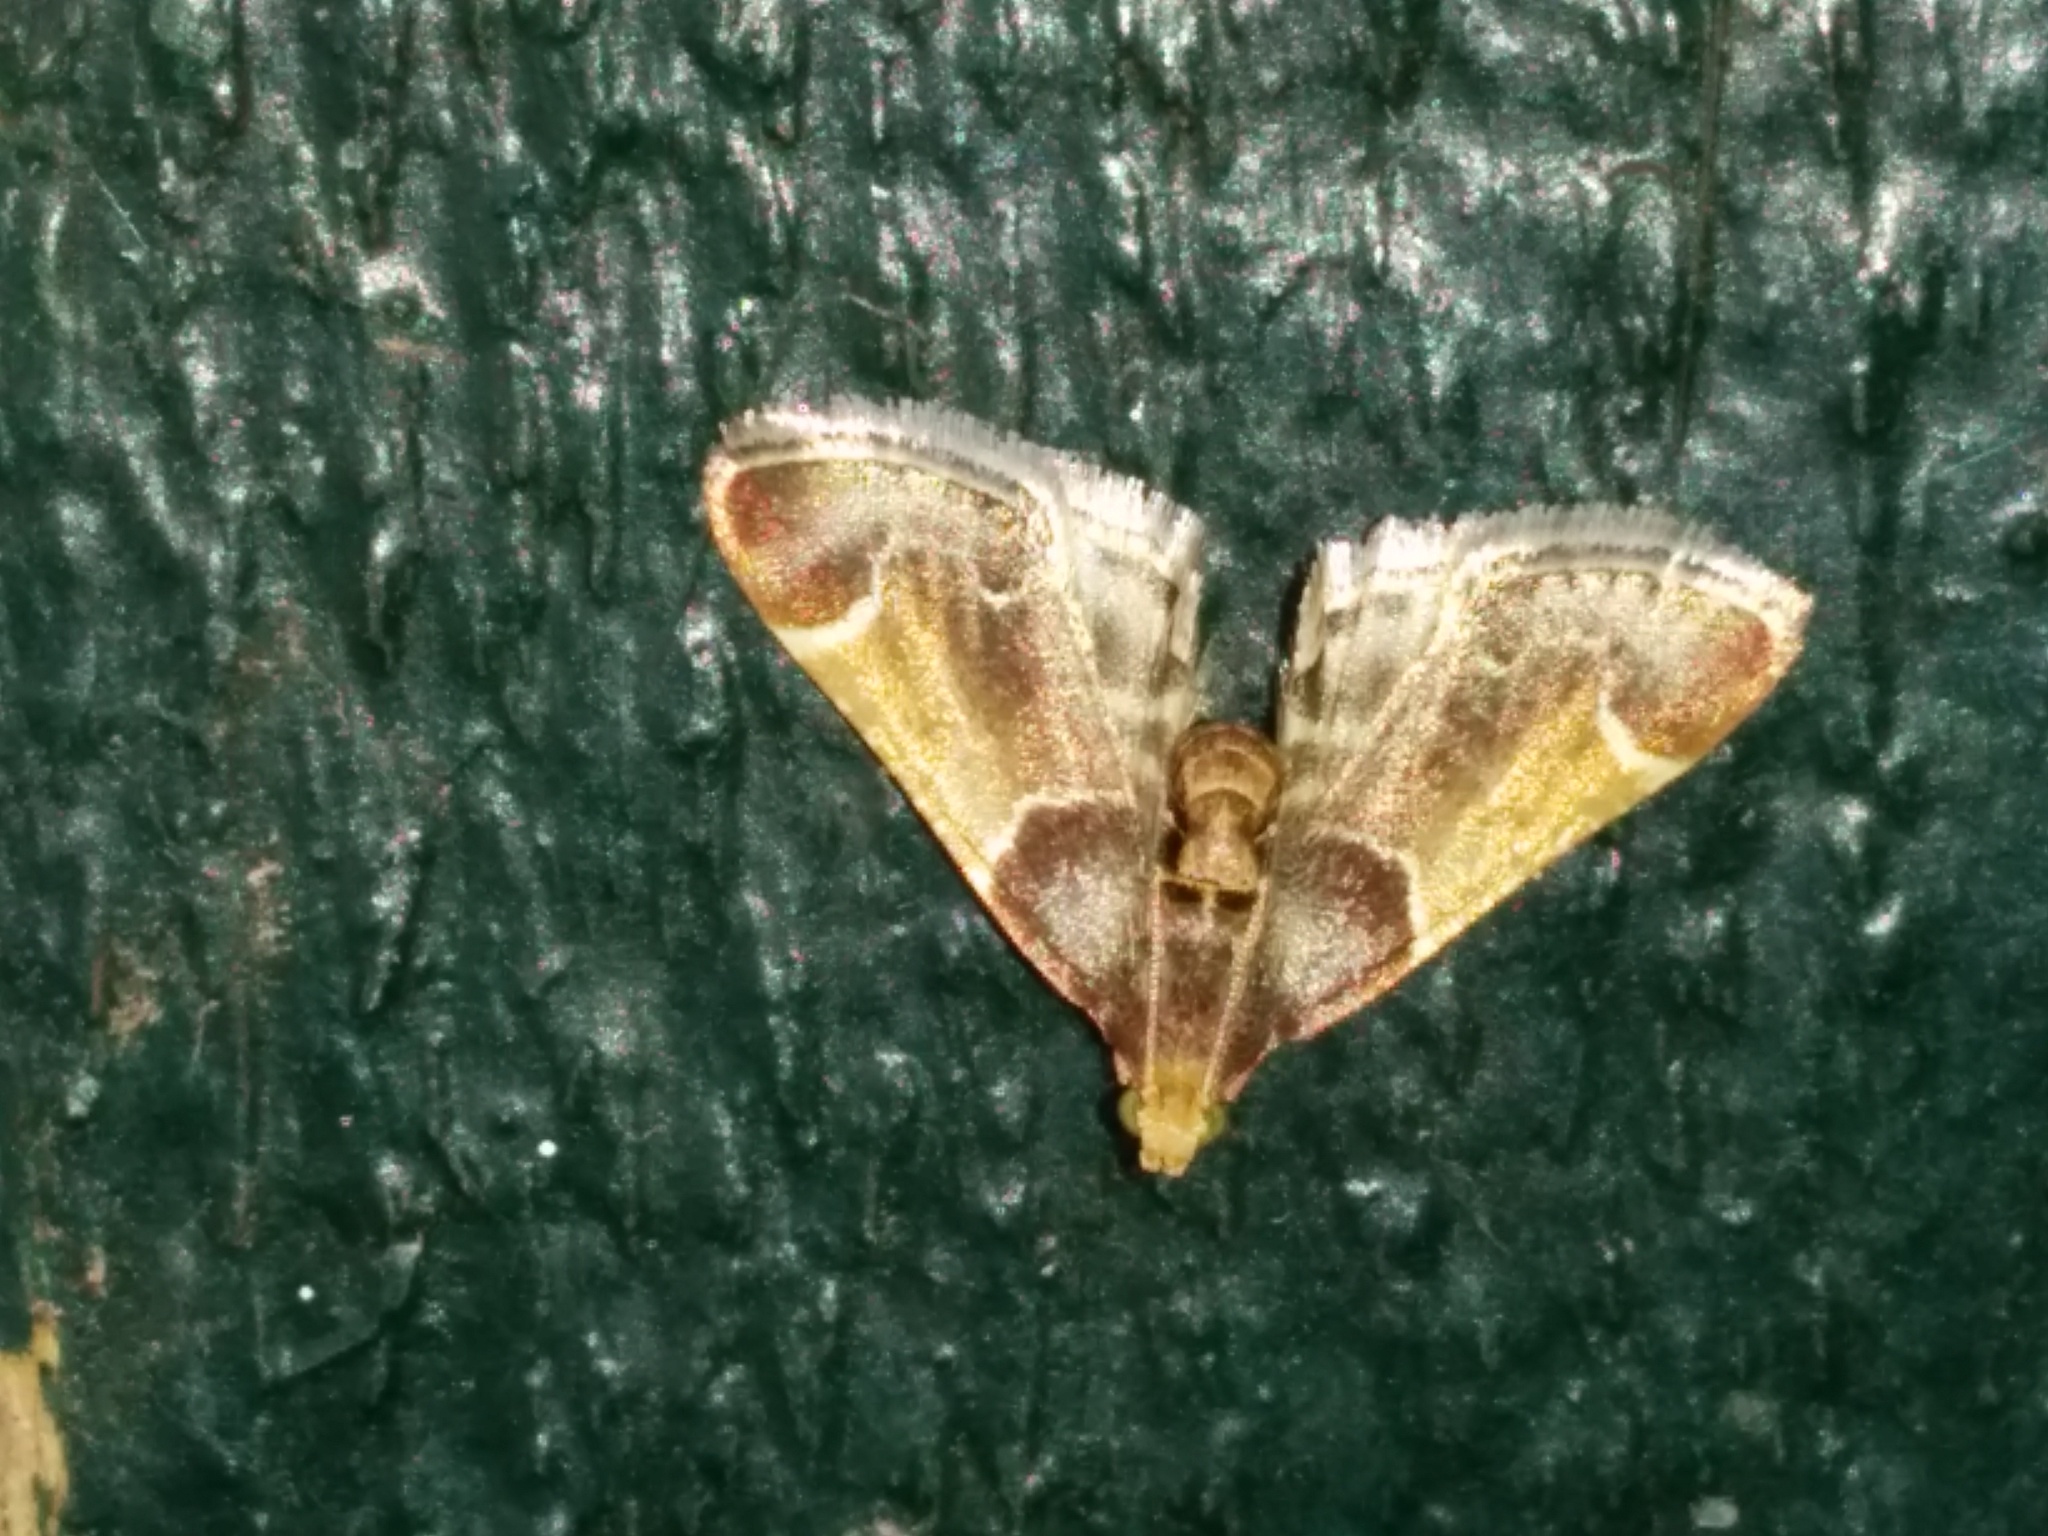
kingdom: Animalia
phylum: Arthropoda
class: Insecta
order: Lepidoptera
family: Pyralidae
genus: Pyralis
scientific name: Pyralis farinalis
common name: Meal moth
